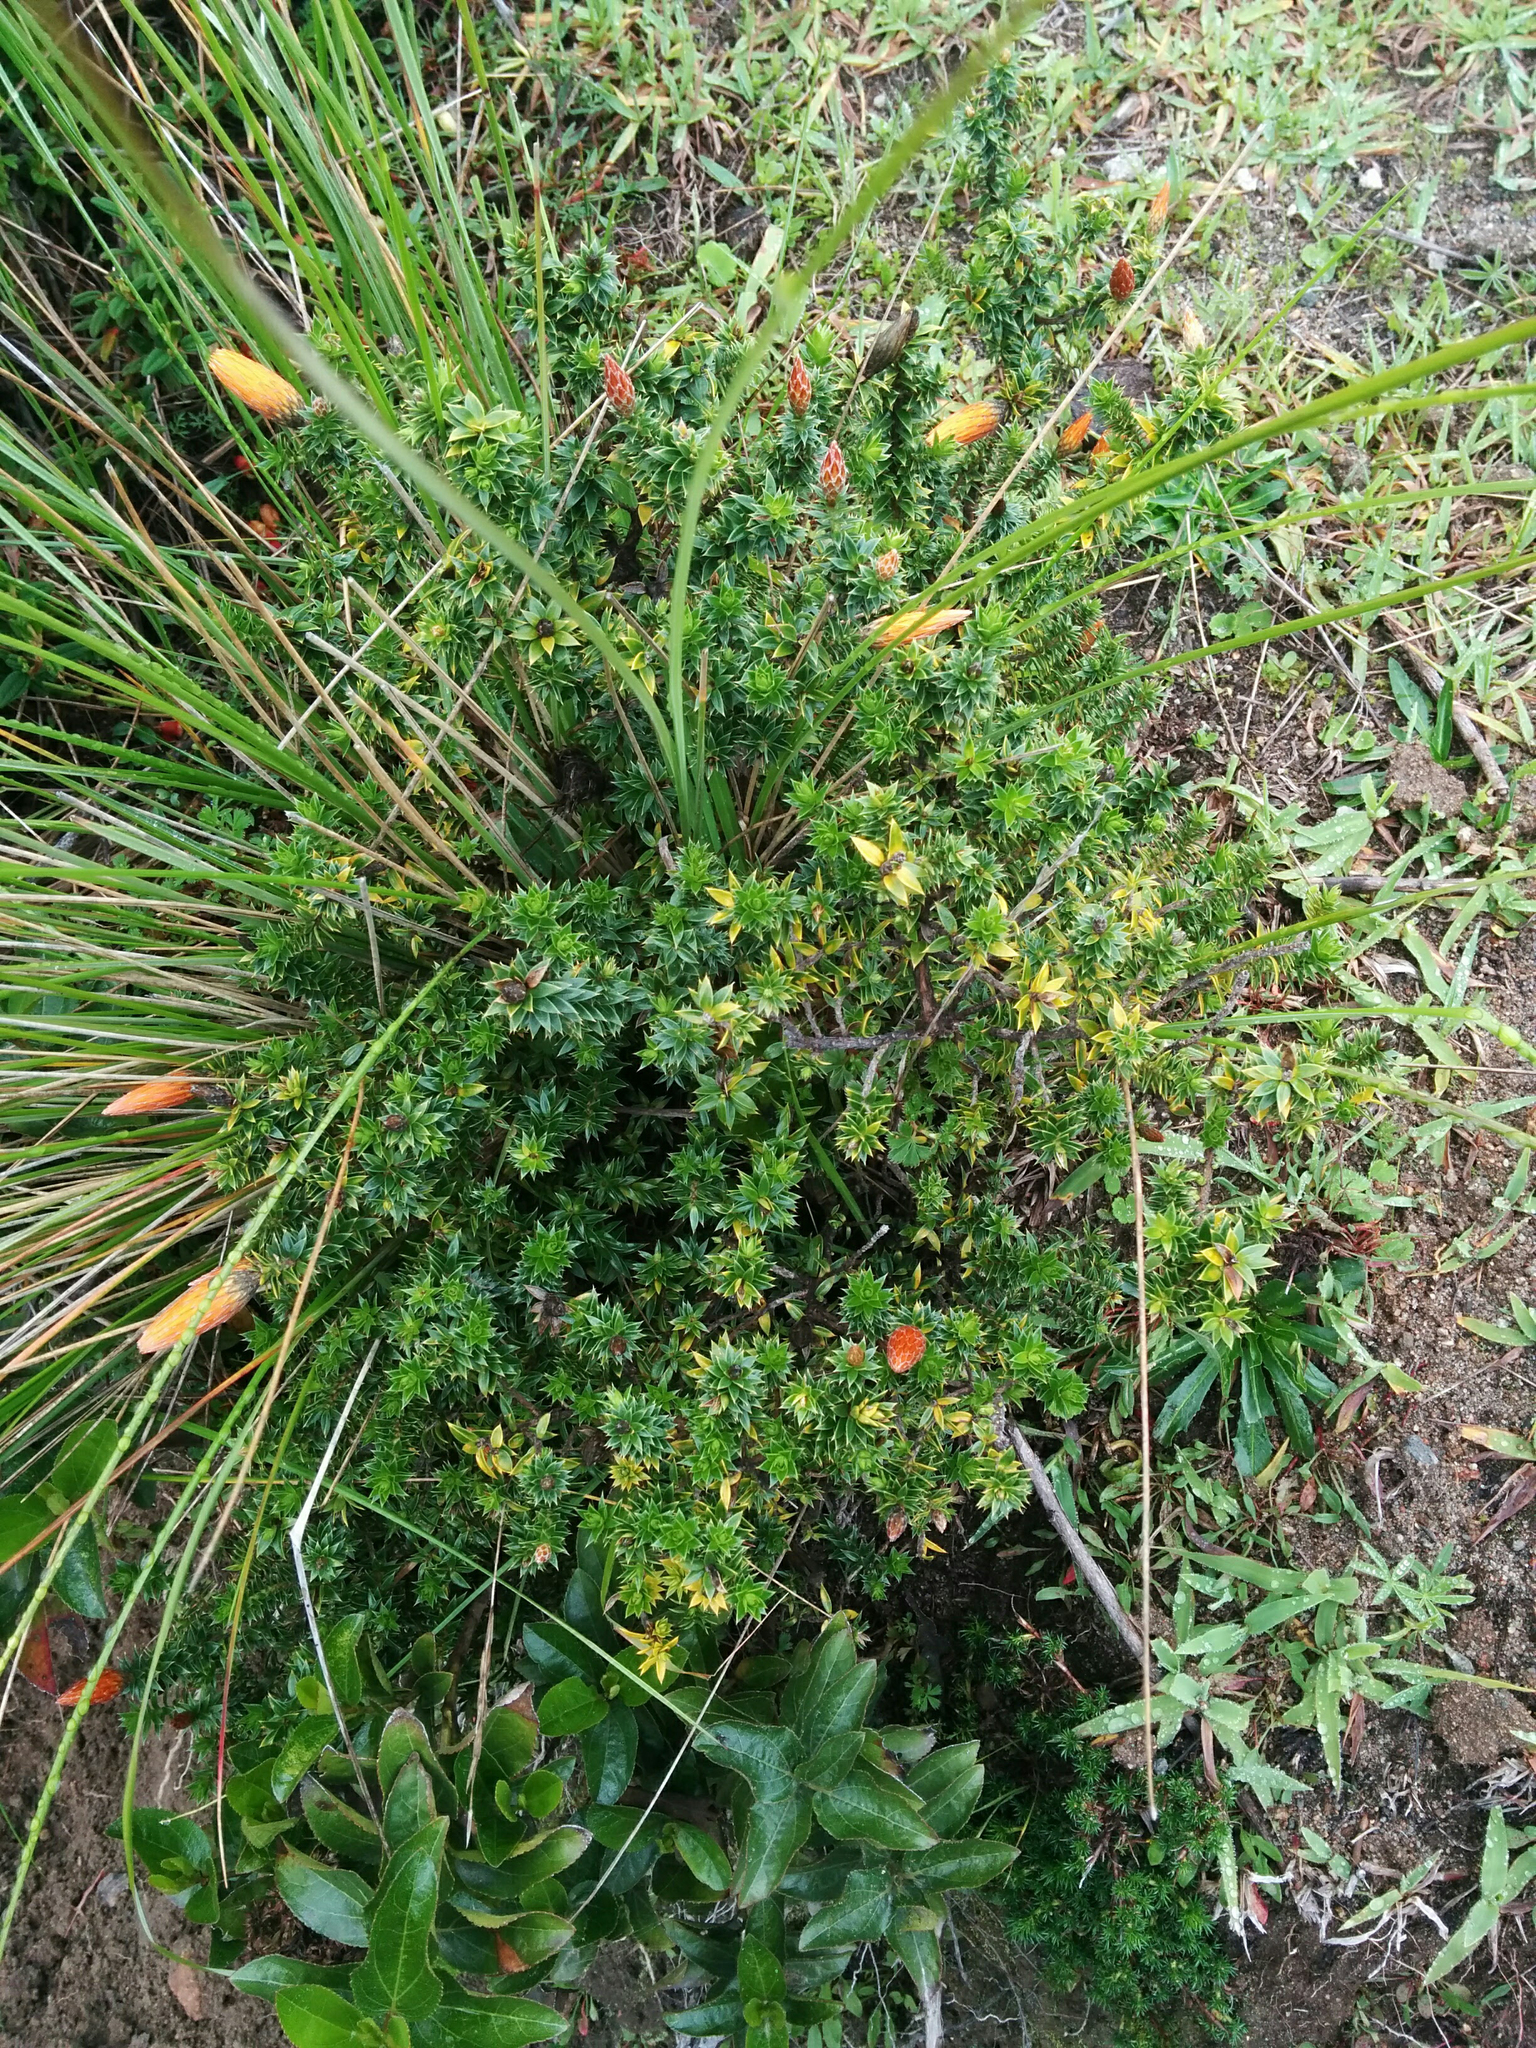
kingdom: Plantae
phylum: Tracheophyta
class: Magnoliopsida
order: Asterales
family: Asteraceae
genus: Chuquiraga
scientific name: Chuquiraga jussieui
